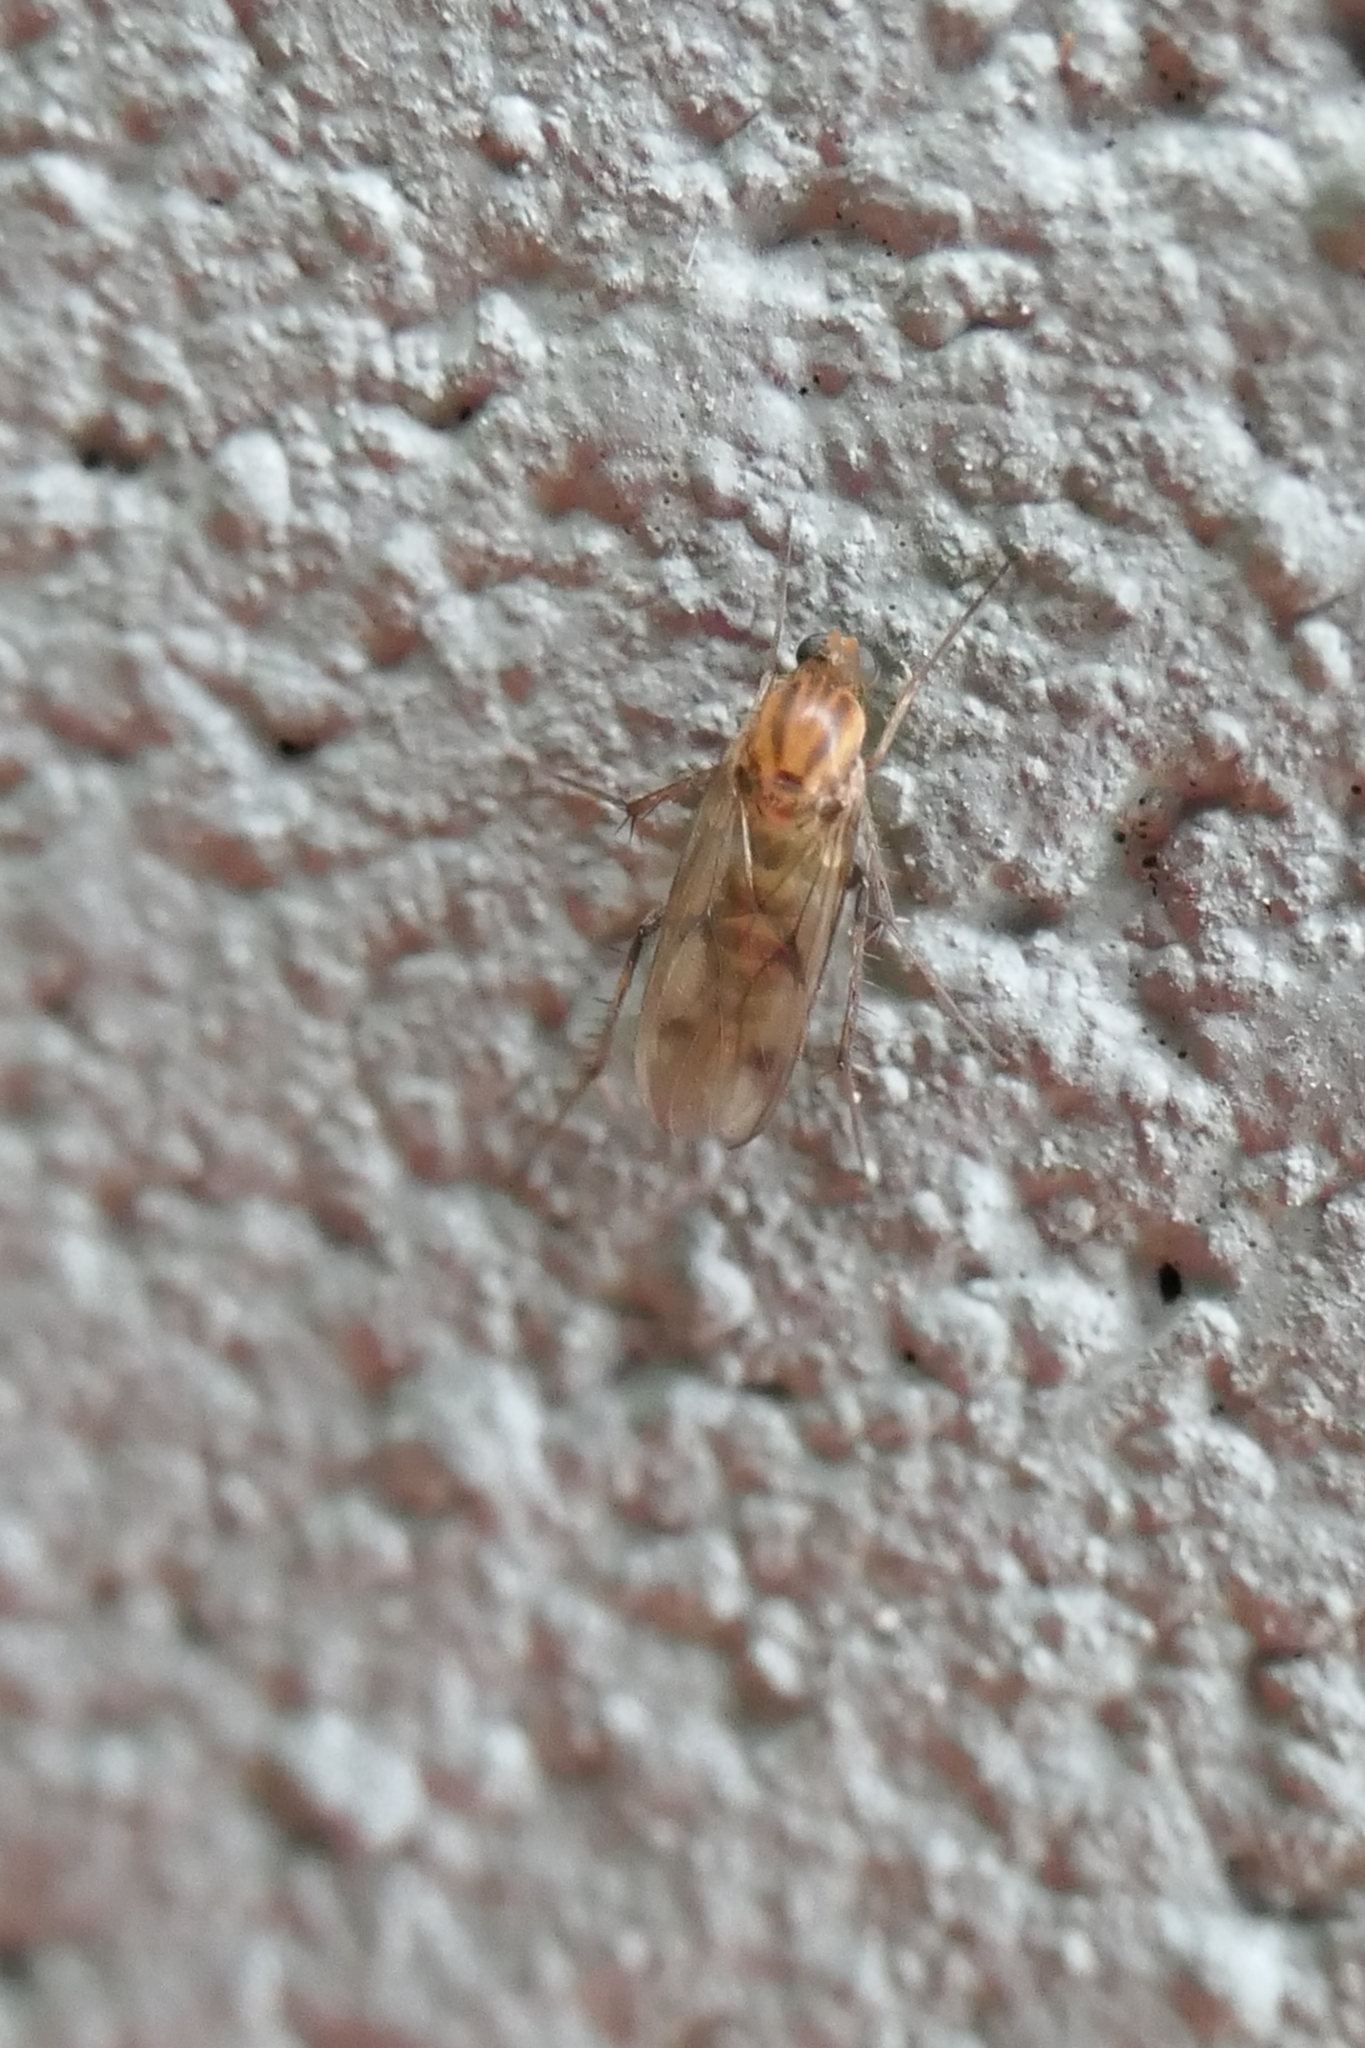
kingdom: Animalia
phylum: Arthropoda
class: Insecta
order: Diptera
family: Mycetophilidae
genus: Anomalomyia
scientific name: Anomalomyia guttata
